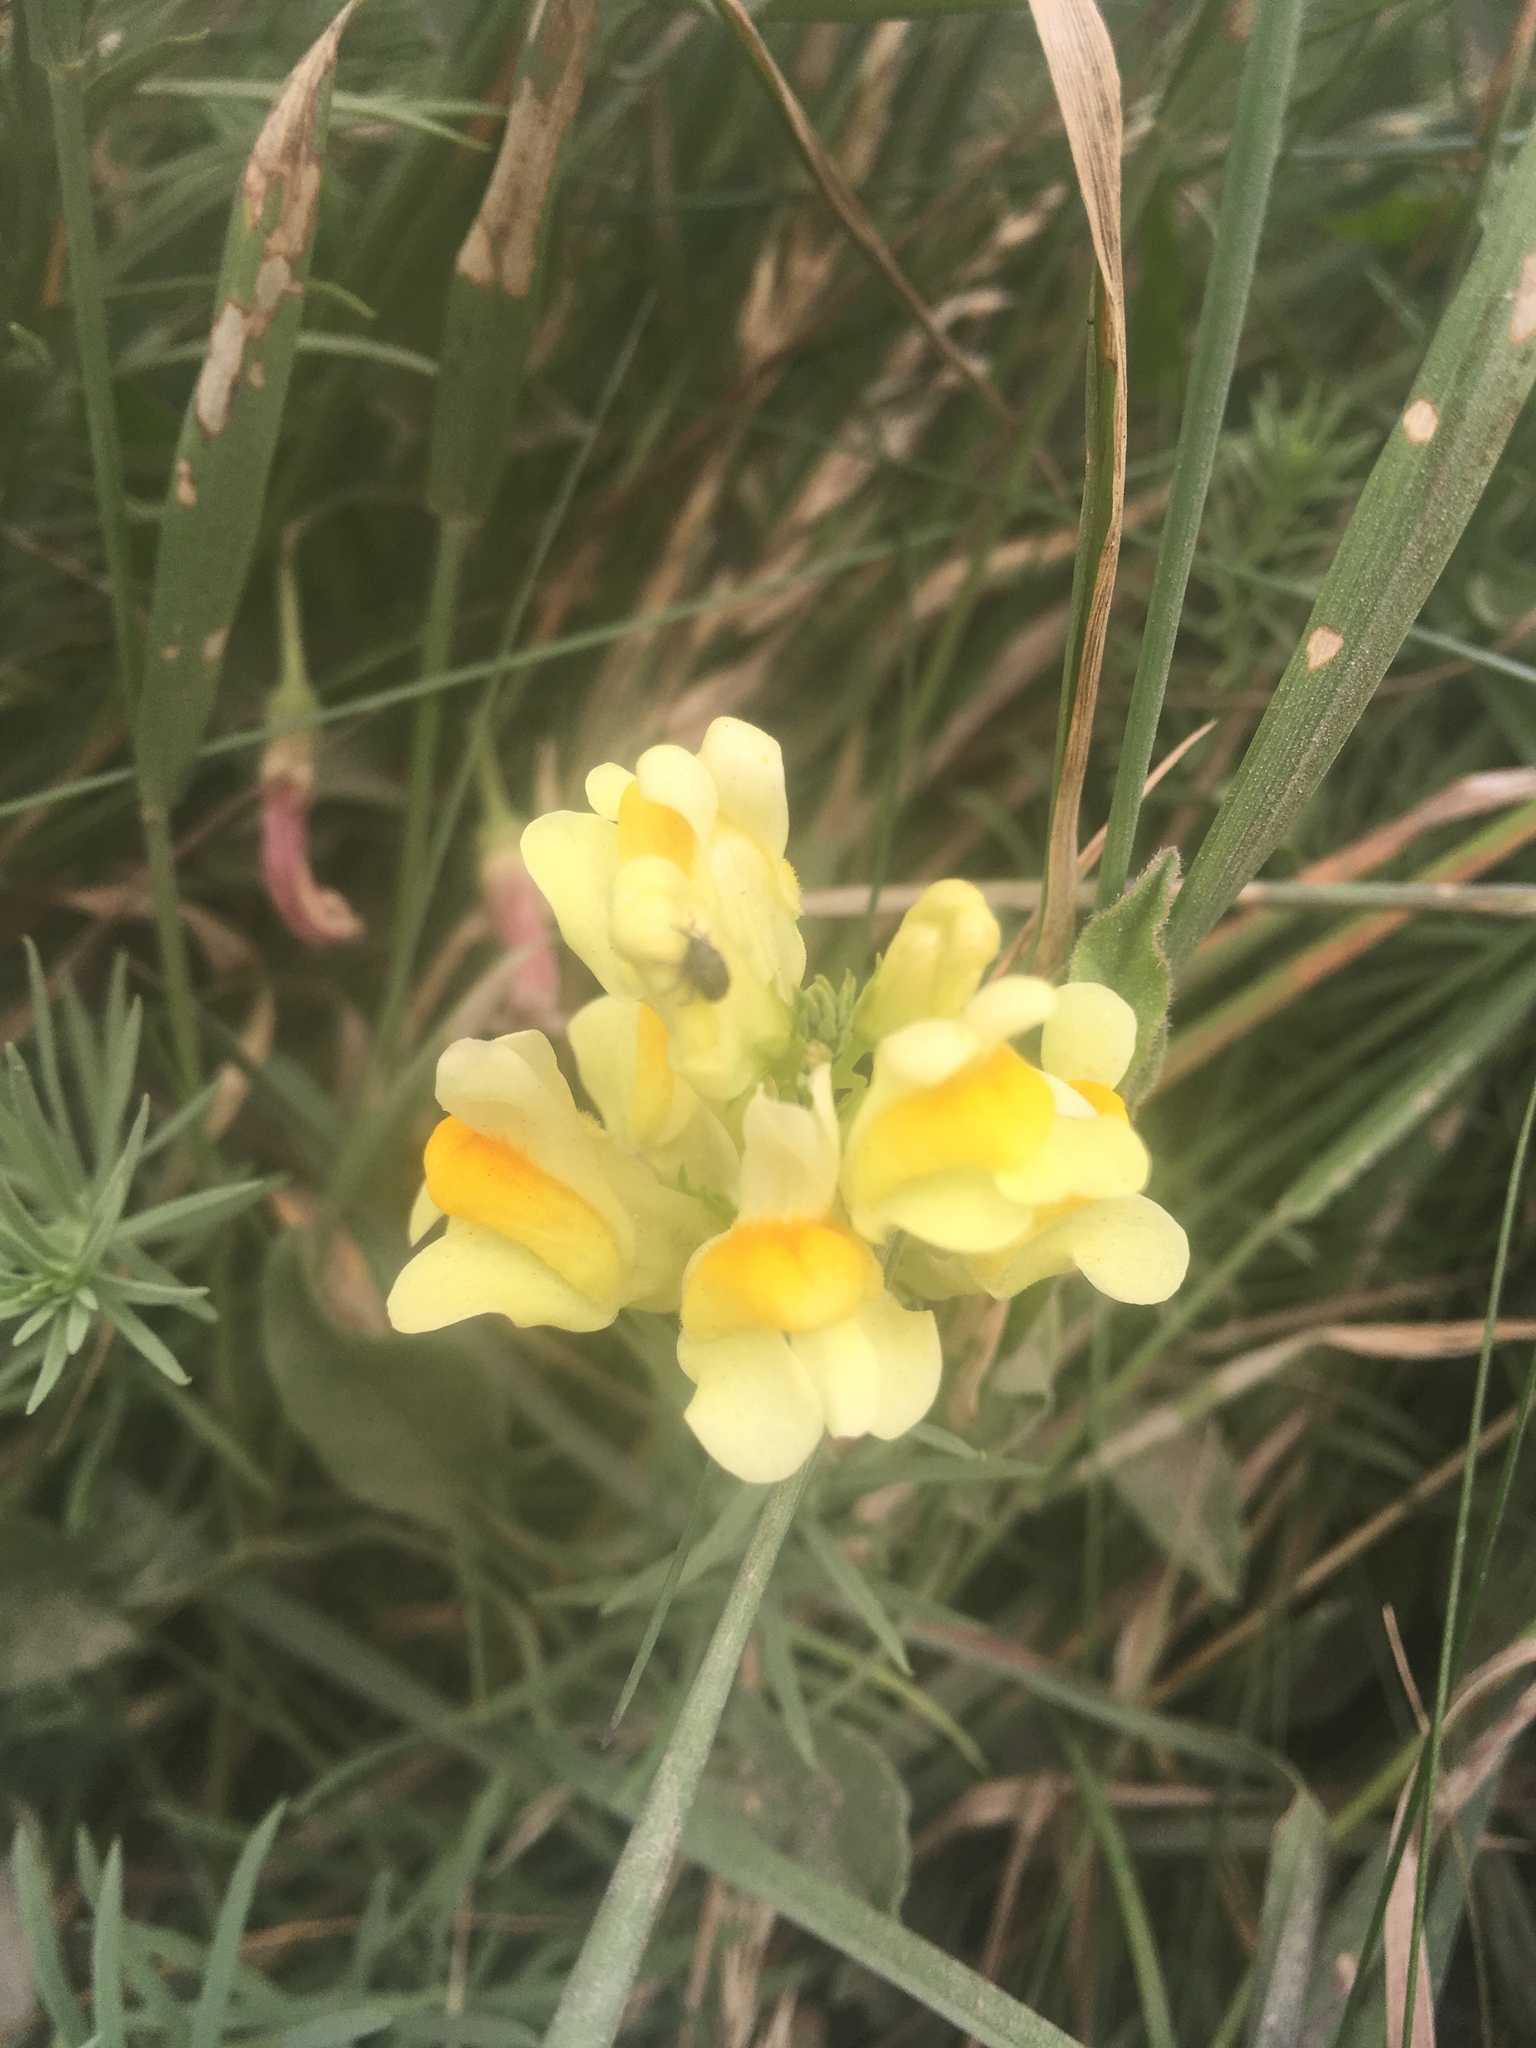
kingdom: Plantae
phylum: Tracheophyta
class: Magnoliopsida
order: Lamiales
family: Plantaginaceae
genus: Linaria
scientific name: Linaria vulgaris
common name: Butter and eggs
